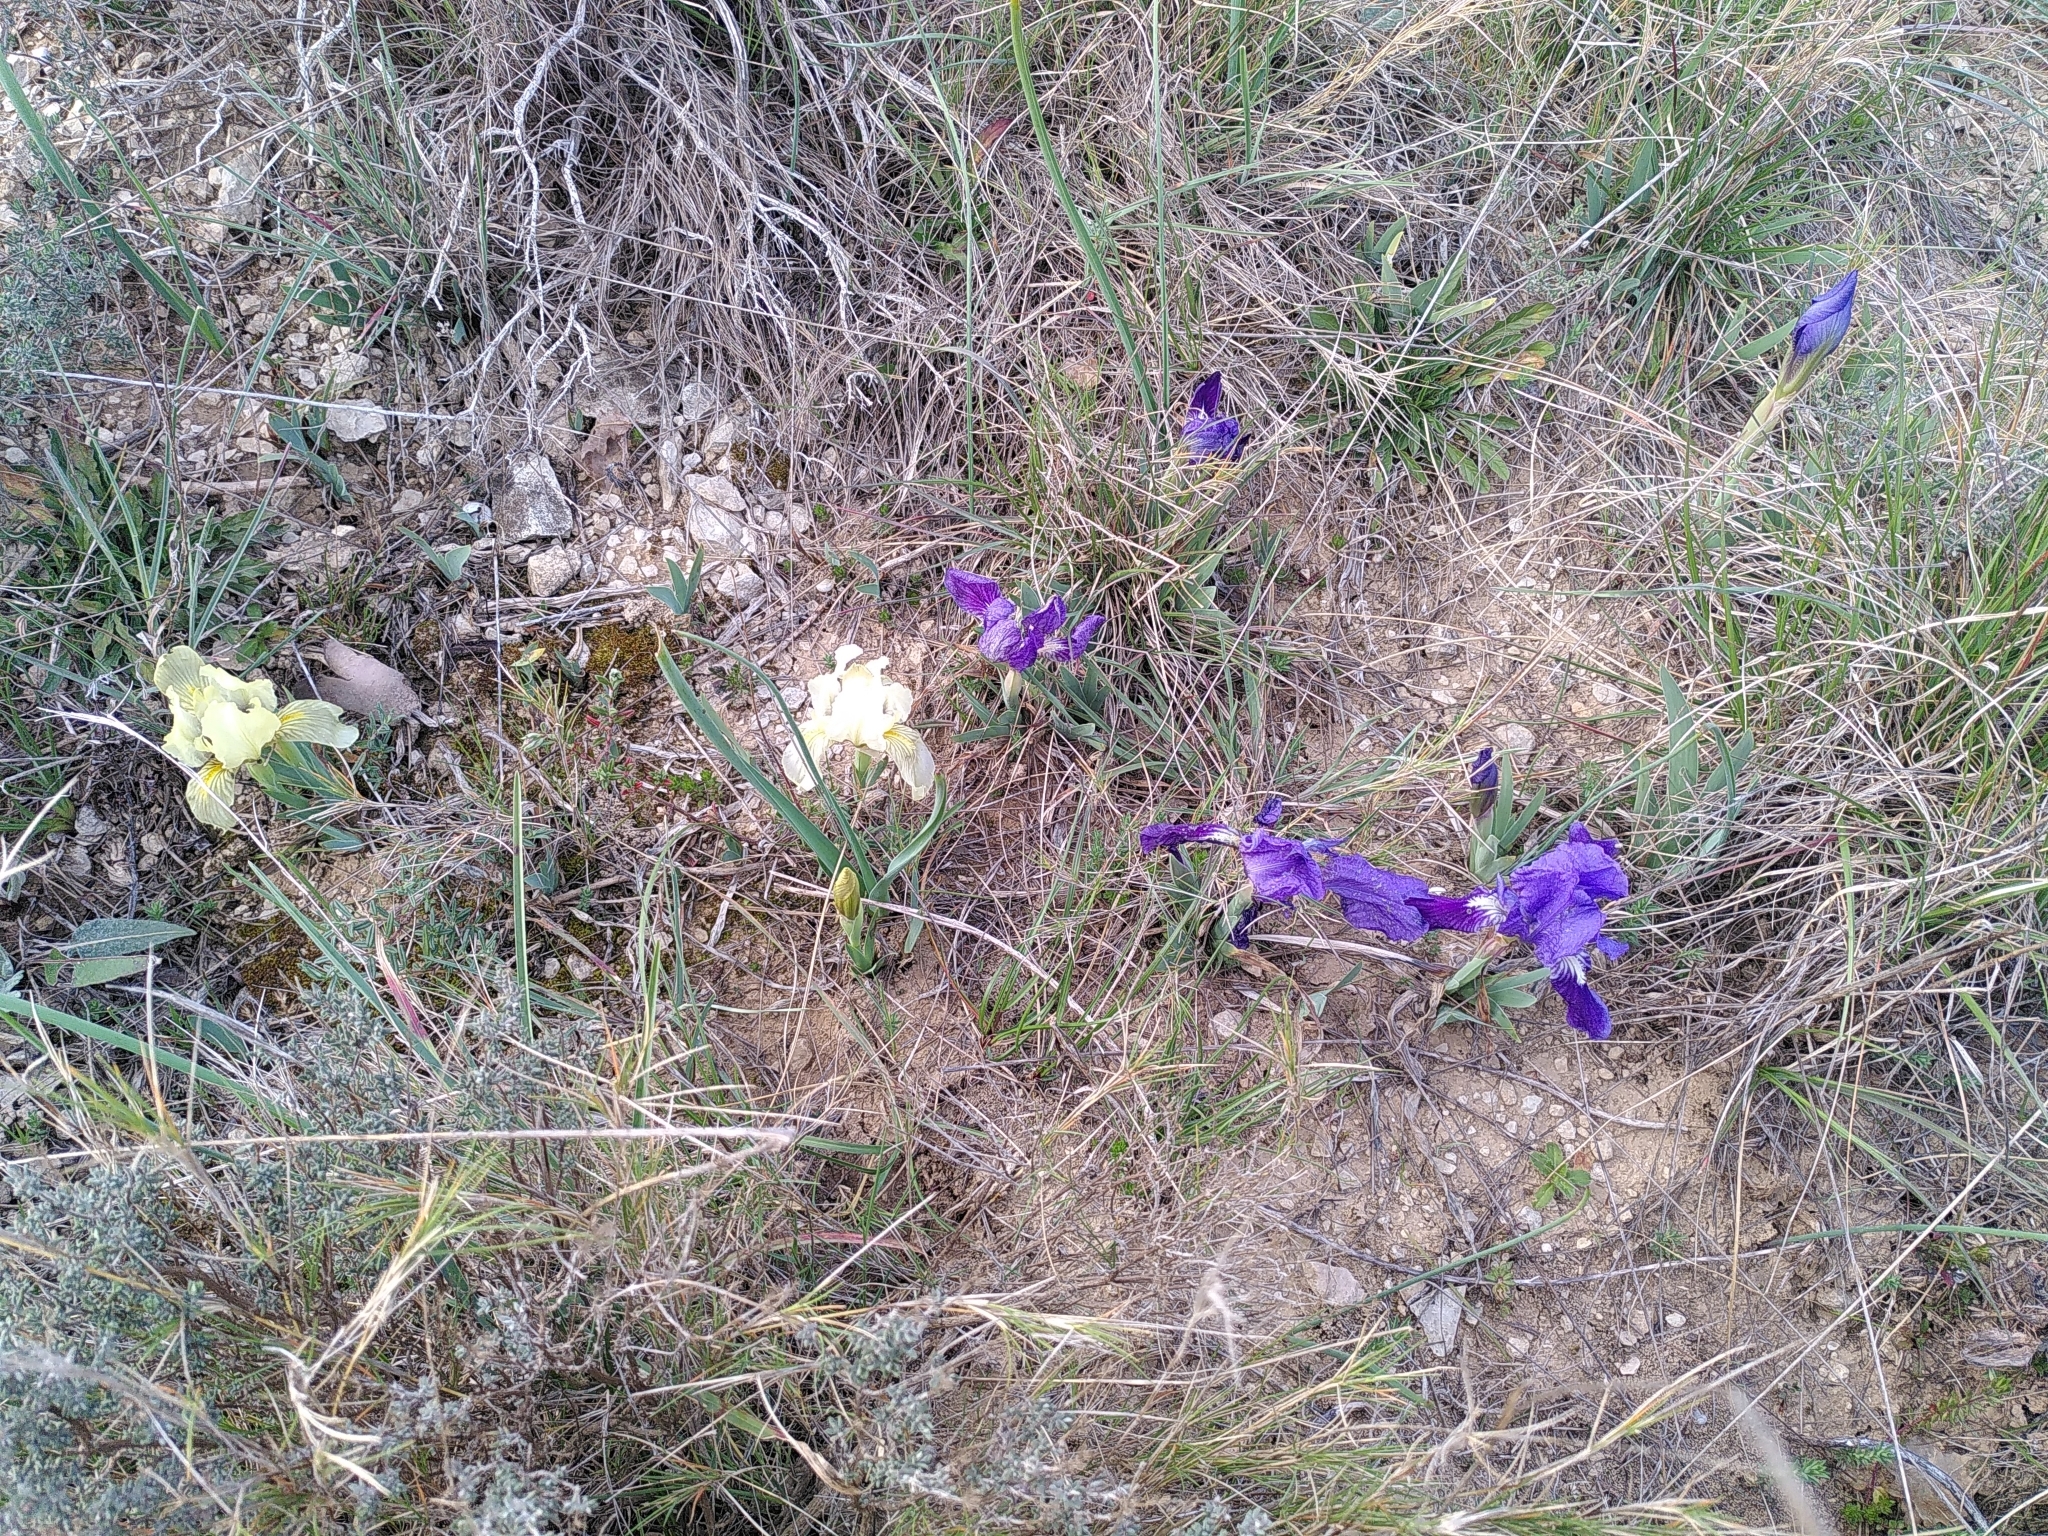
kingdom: Plantae
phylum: Tracheophyta
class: Liliopsida
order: Asparagales
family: Iridaceae
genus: Iris
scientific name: Iris lutescens
